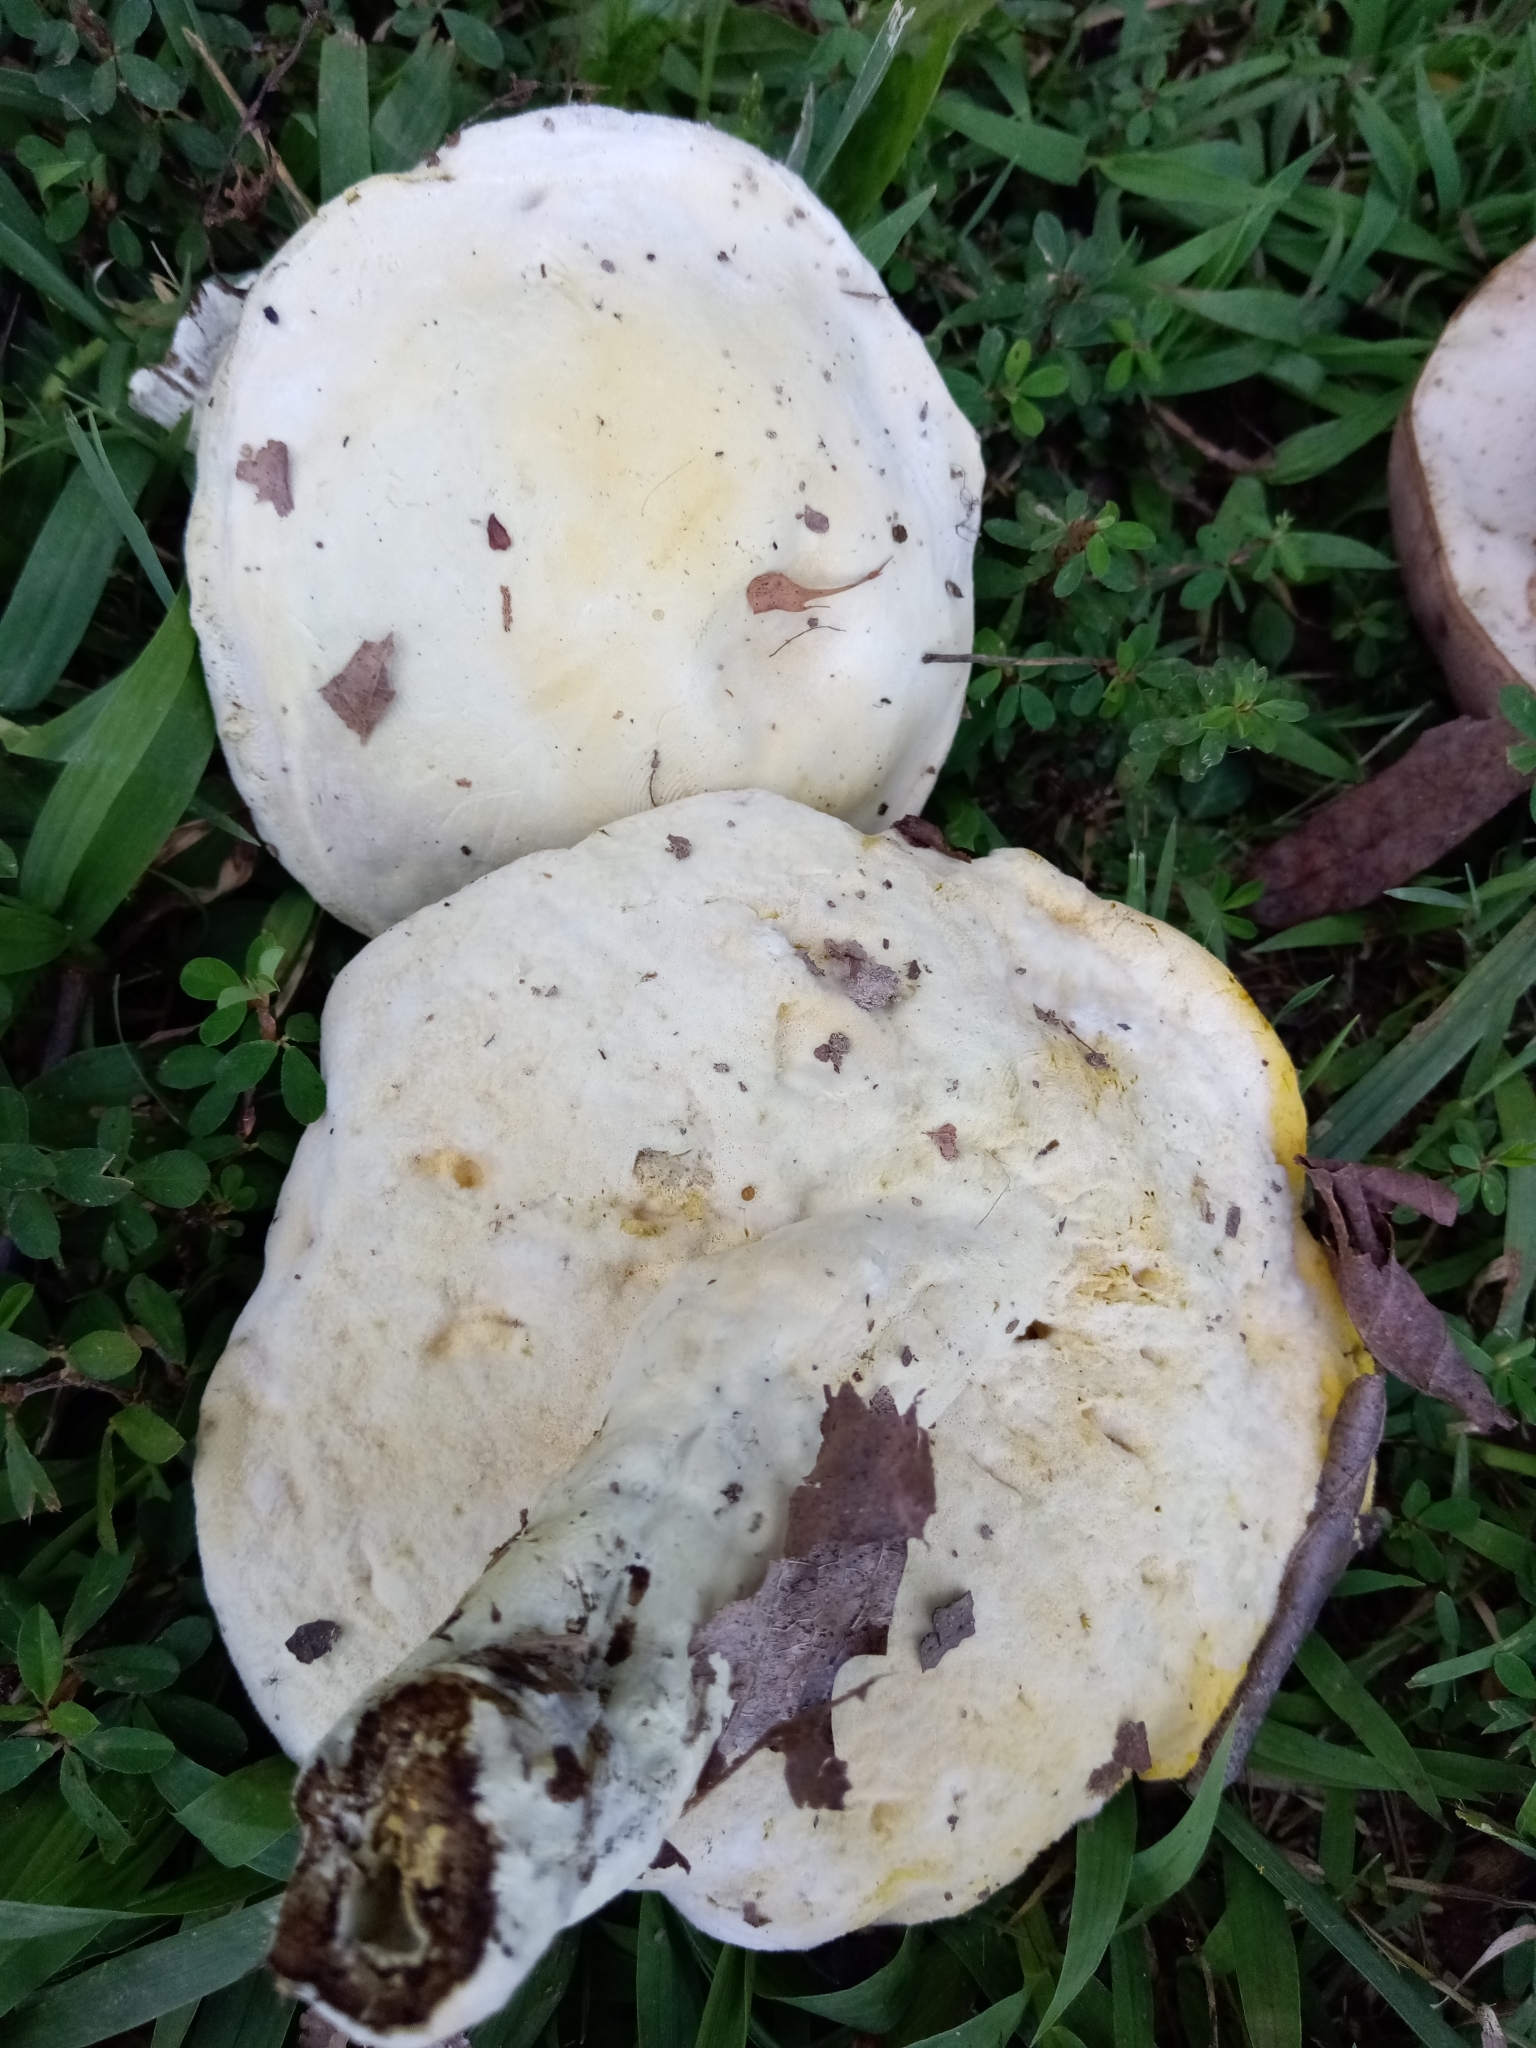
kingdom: Fungi
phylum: Ascomycota
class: Sordariomycetes
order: Hypocreales
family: Hypocreaceae
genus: Hypomyces
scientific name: Hypomyces chrysospermus
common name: Bolete mould
